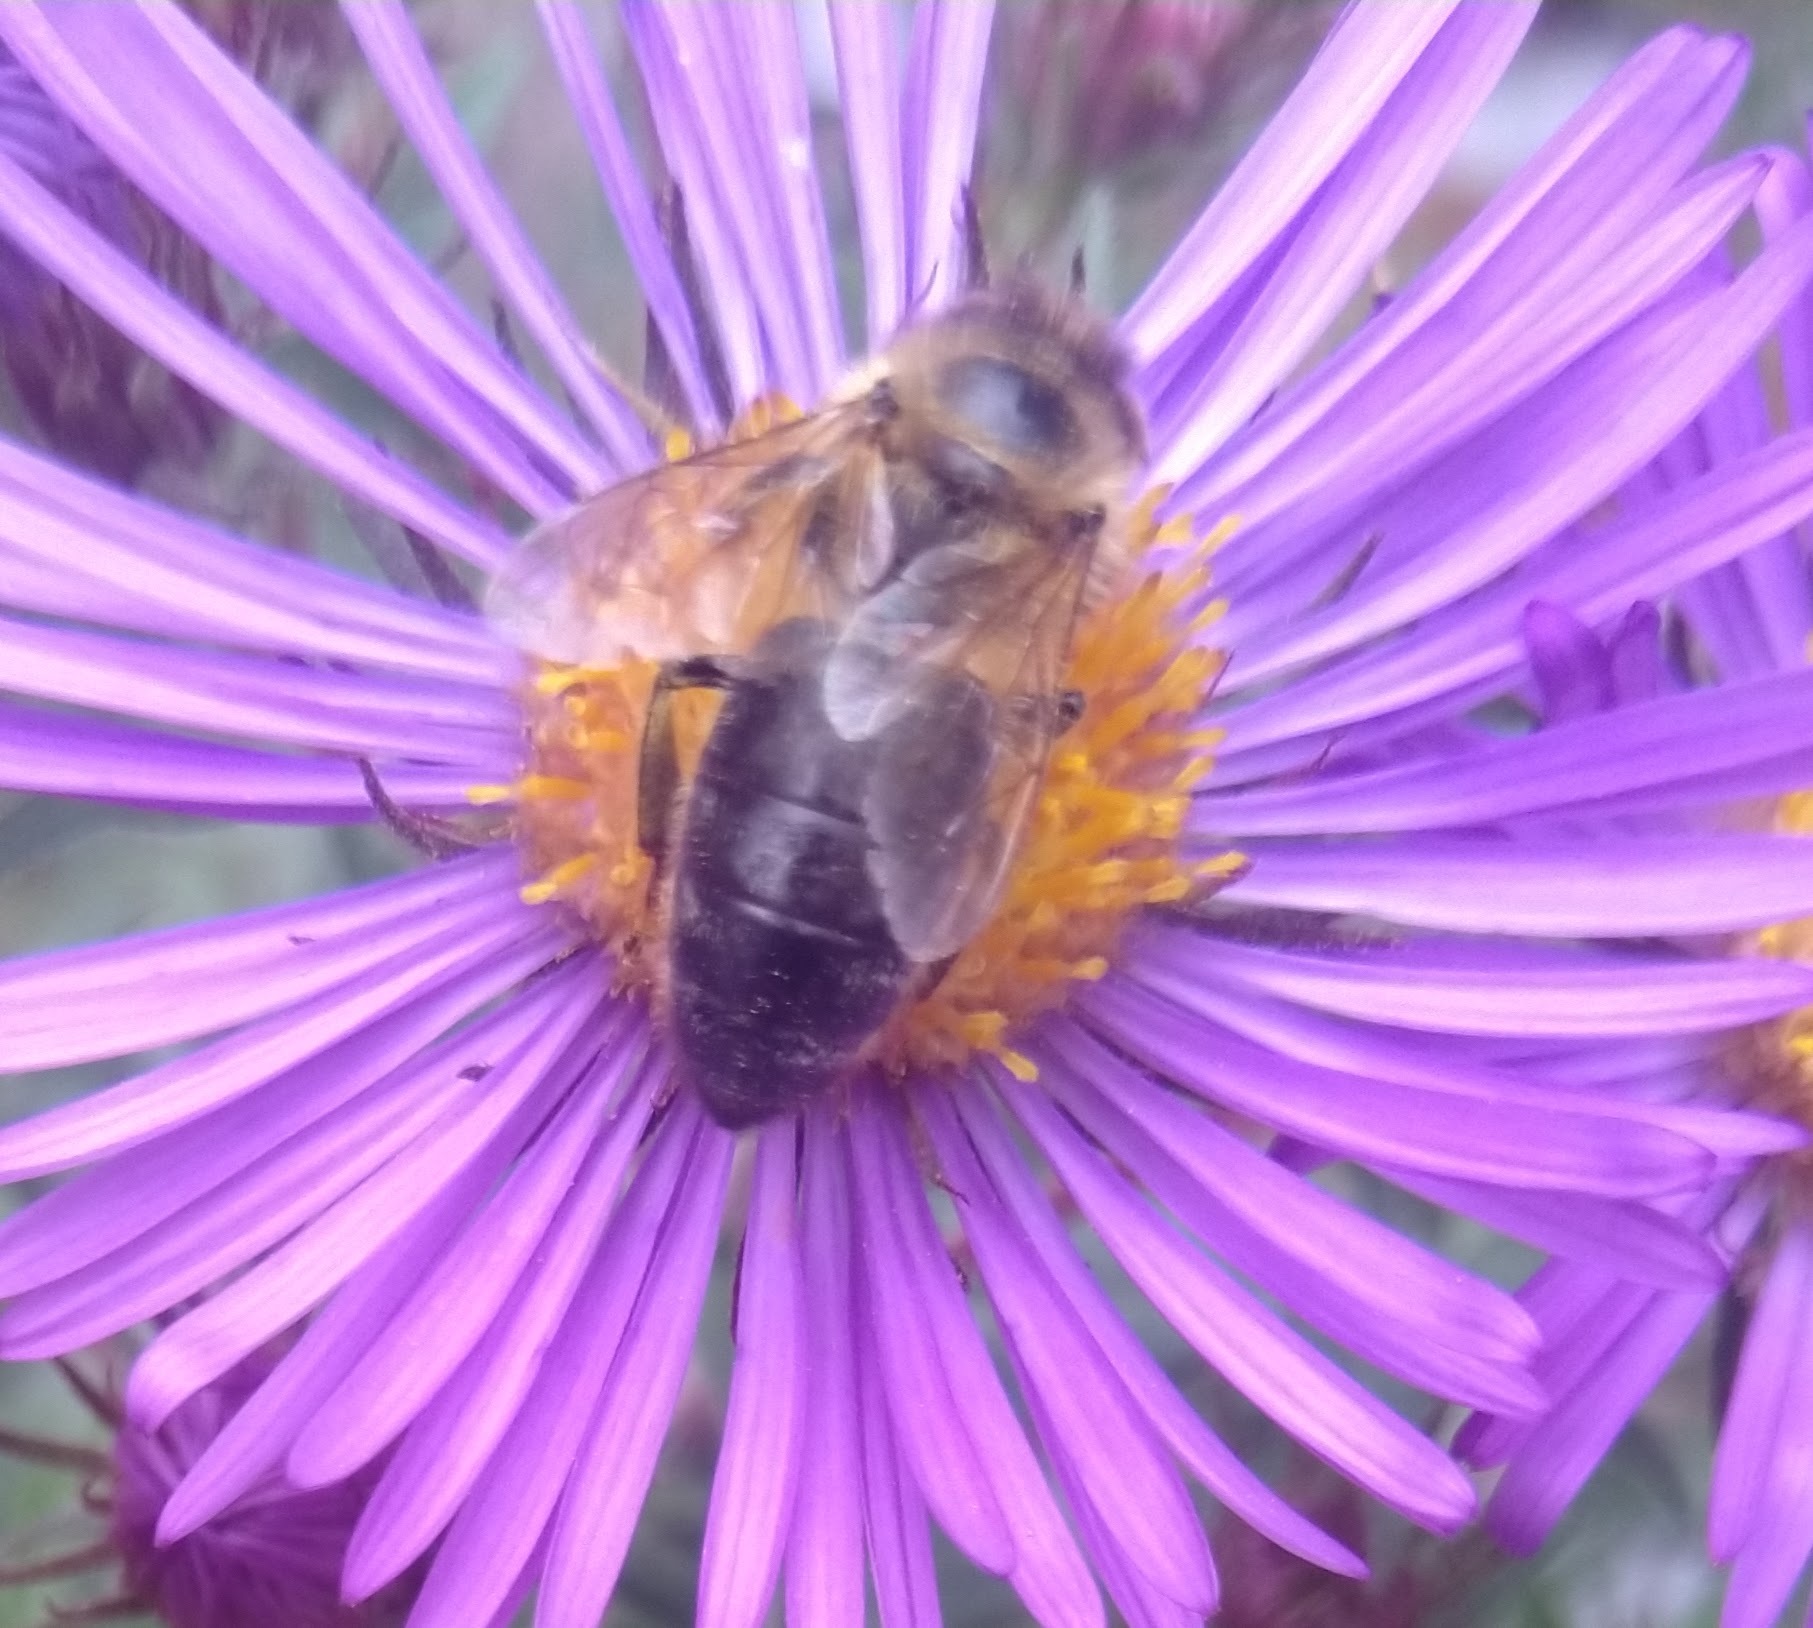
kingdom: Animalia
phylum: Arthropoda
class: Insecta
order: Hymenoptera
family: Apidae
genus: Apis
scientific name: Apis mellifera
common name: Honey bee
